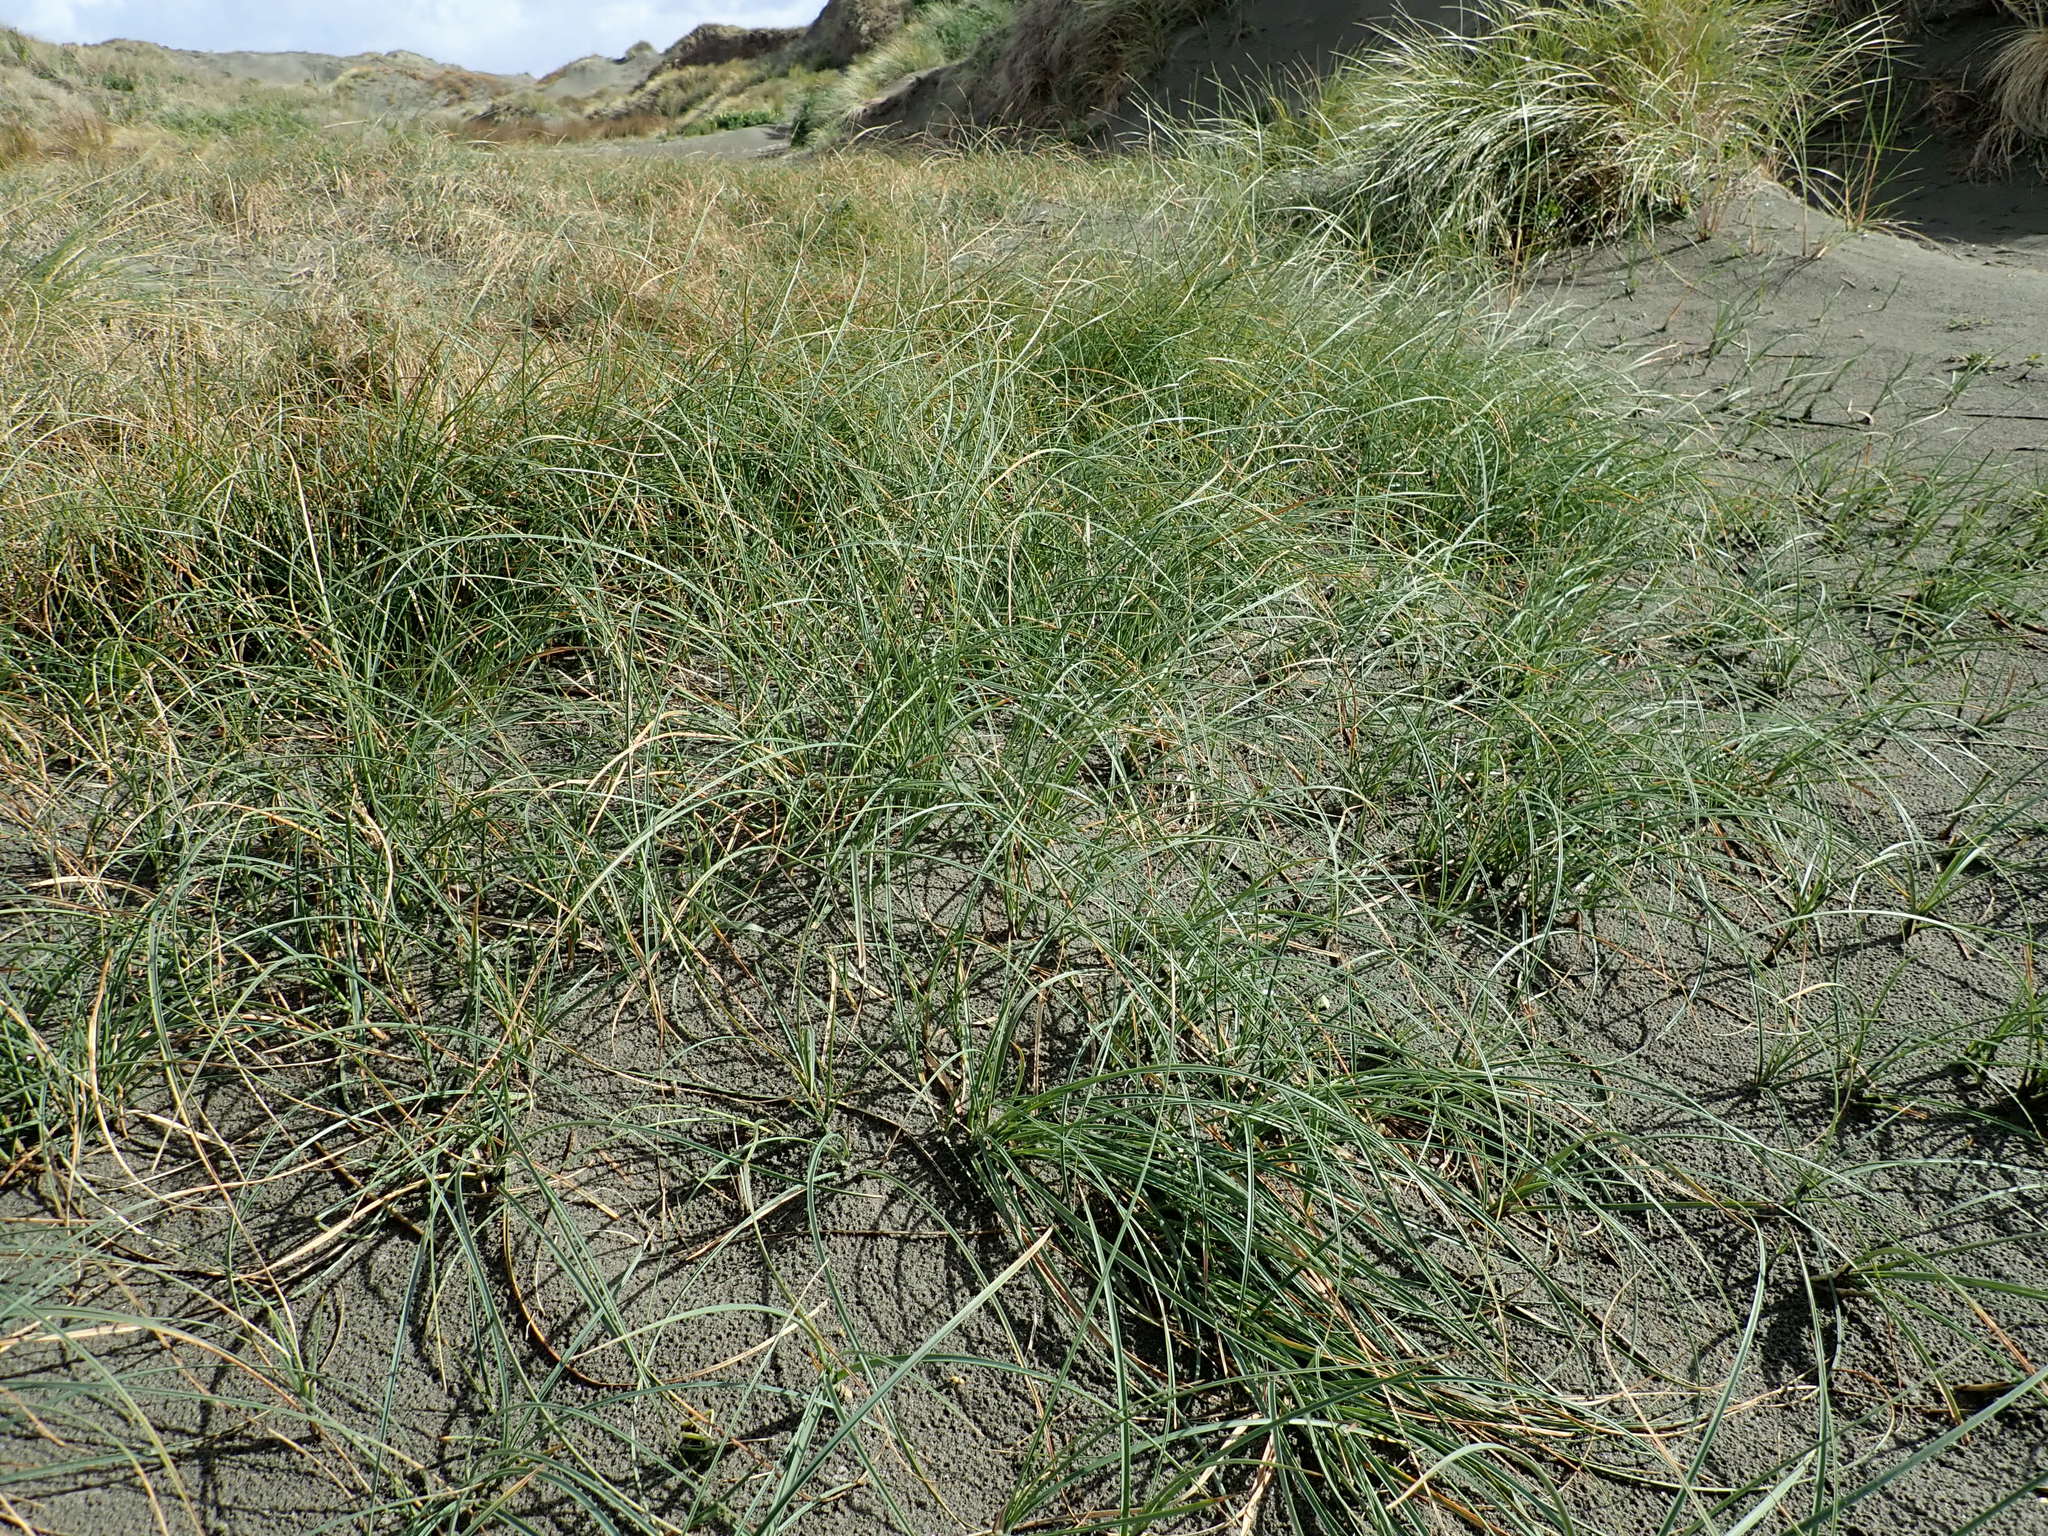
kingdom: Plantae
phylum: Tracheophyta
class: Liliopsida
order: Poales
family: Cyperaceae
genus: Carex
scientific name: Carex pumila
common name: Dwarf sedge
